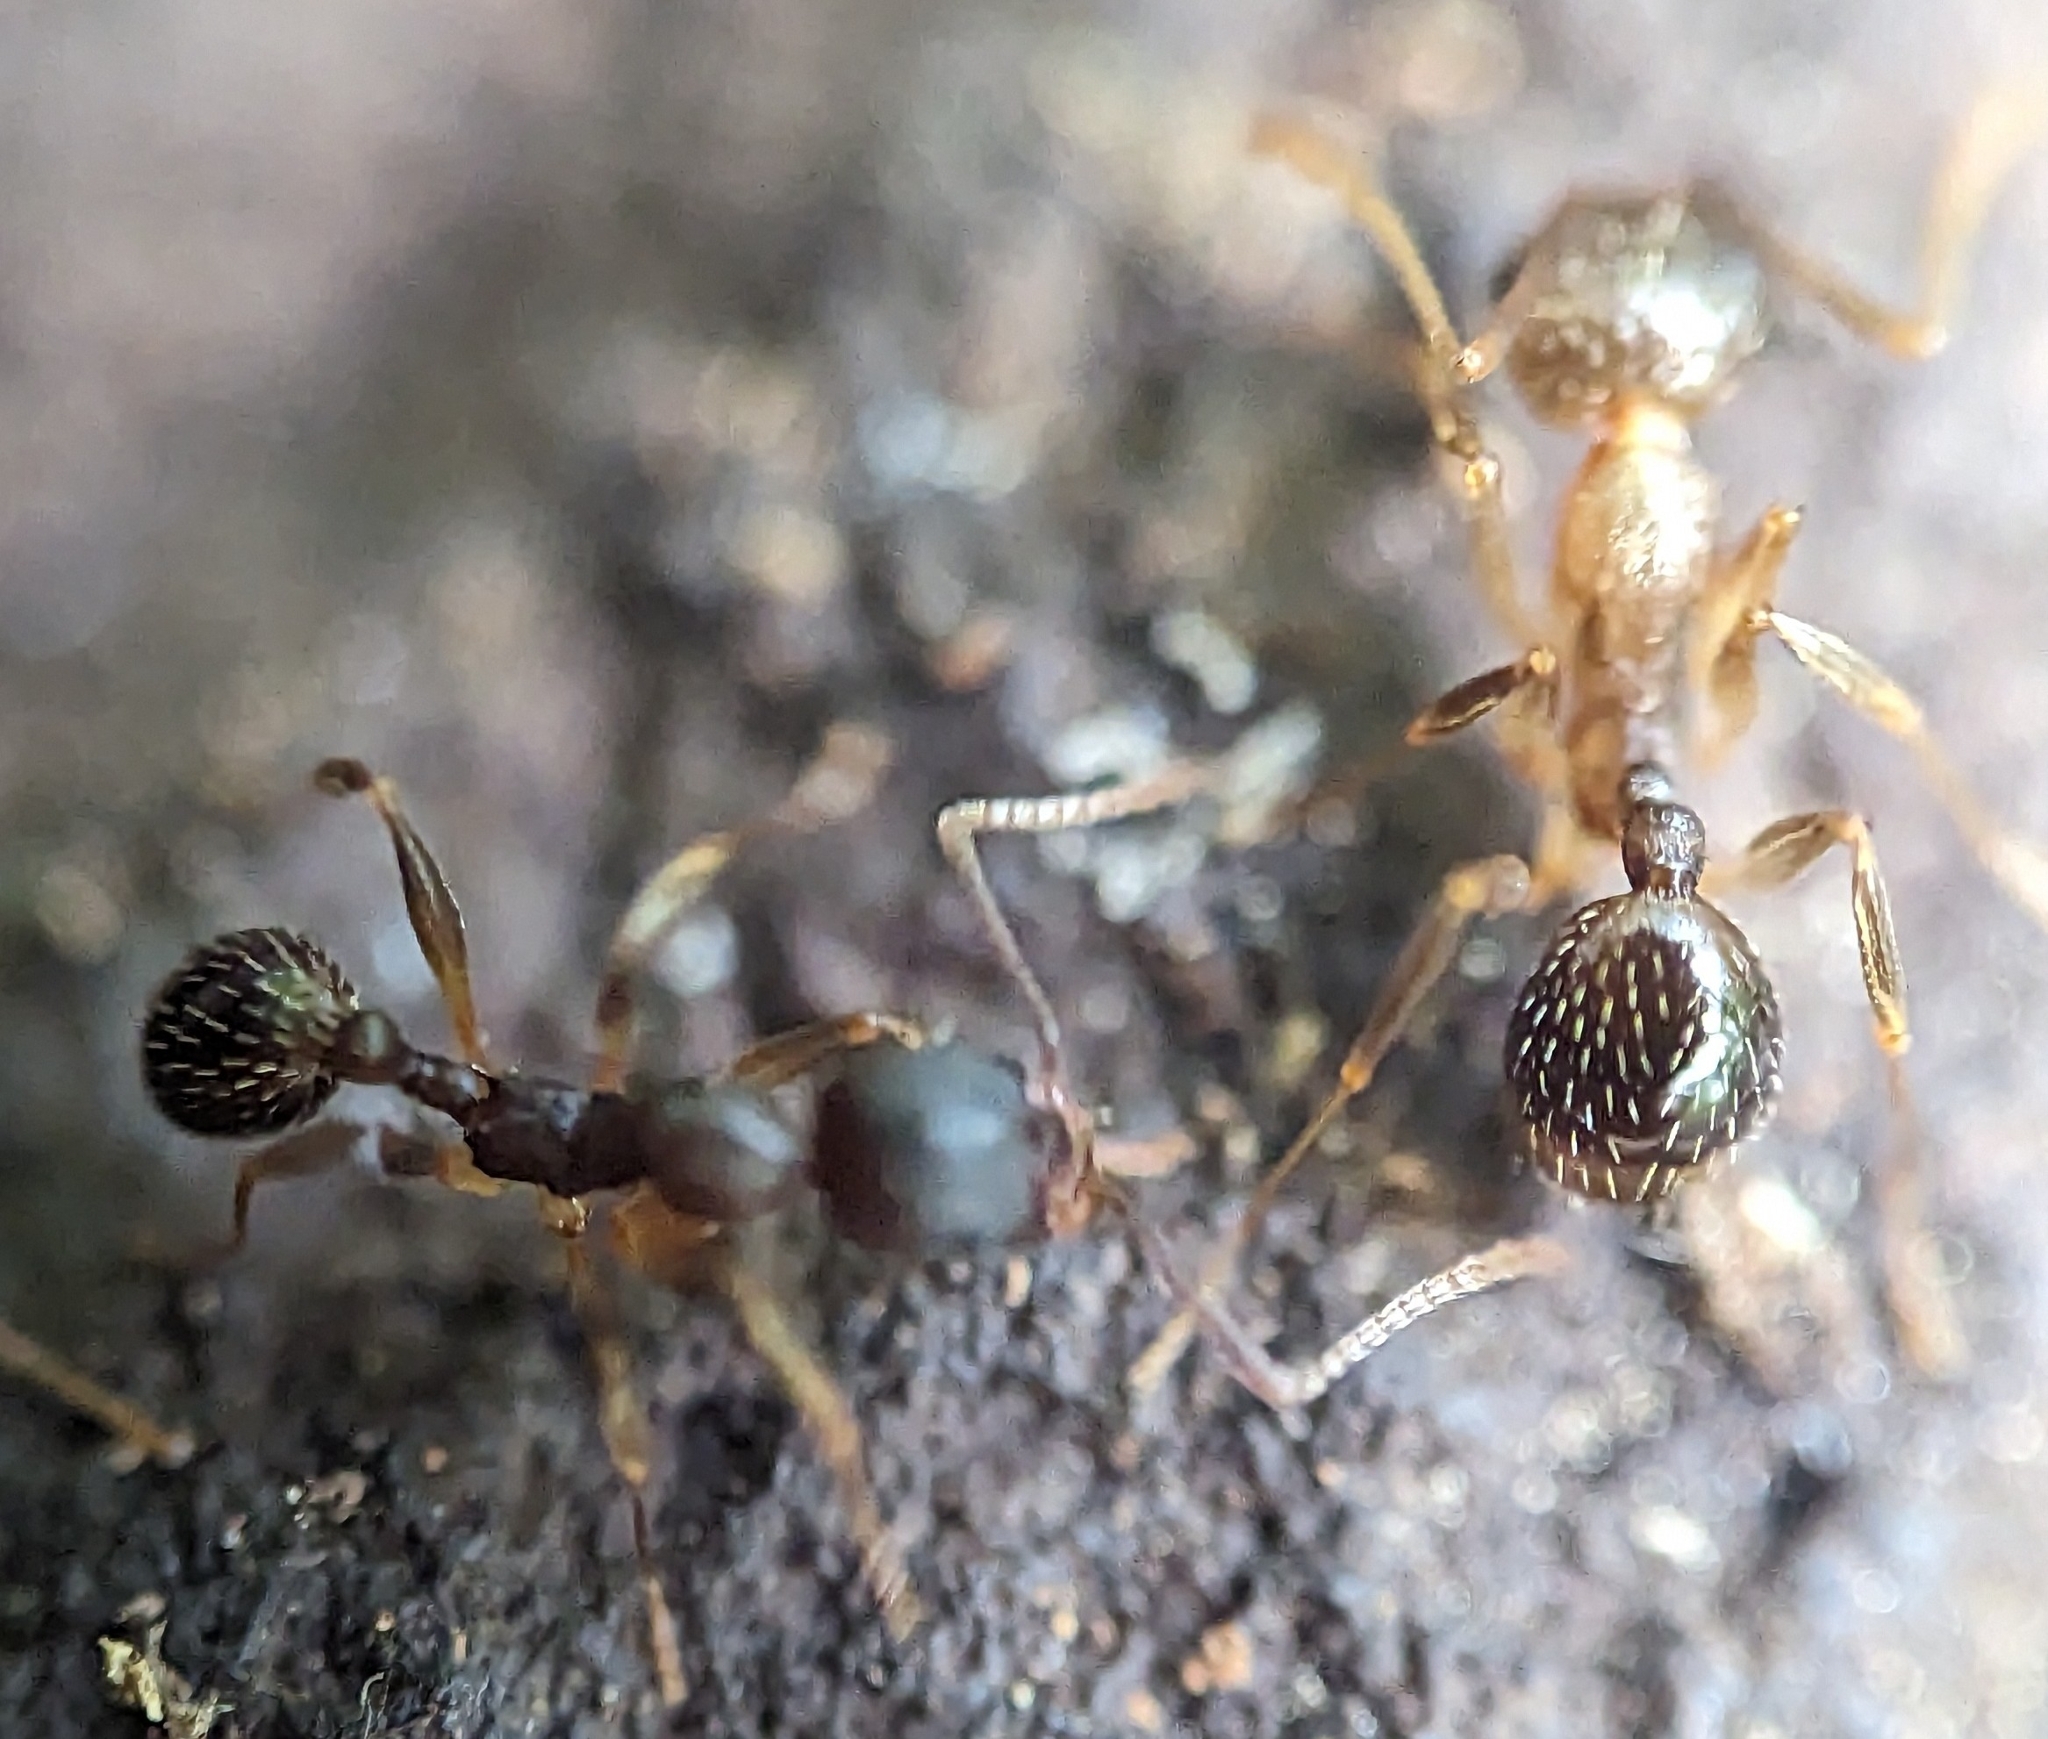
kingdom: Animalia
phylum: Arthropoda
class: Insecta
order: Hymenoptera
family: Formicidae
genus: Aphaenogaster
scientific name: Aphaenogaster rudis
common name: Winnow ant
